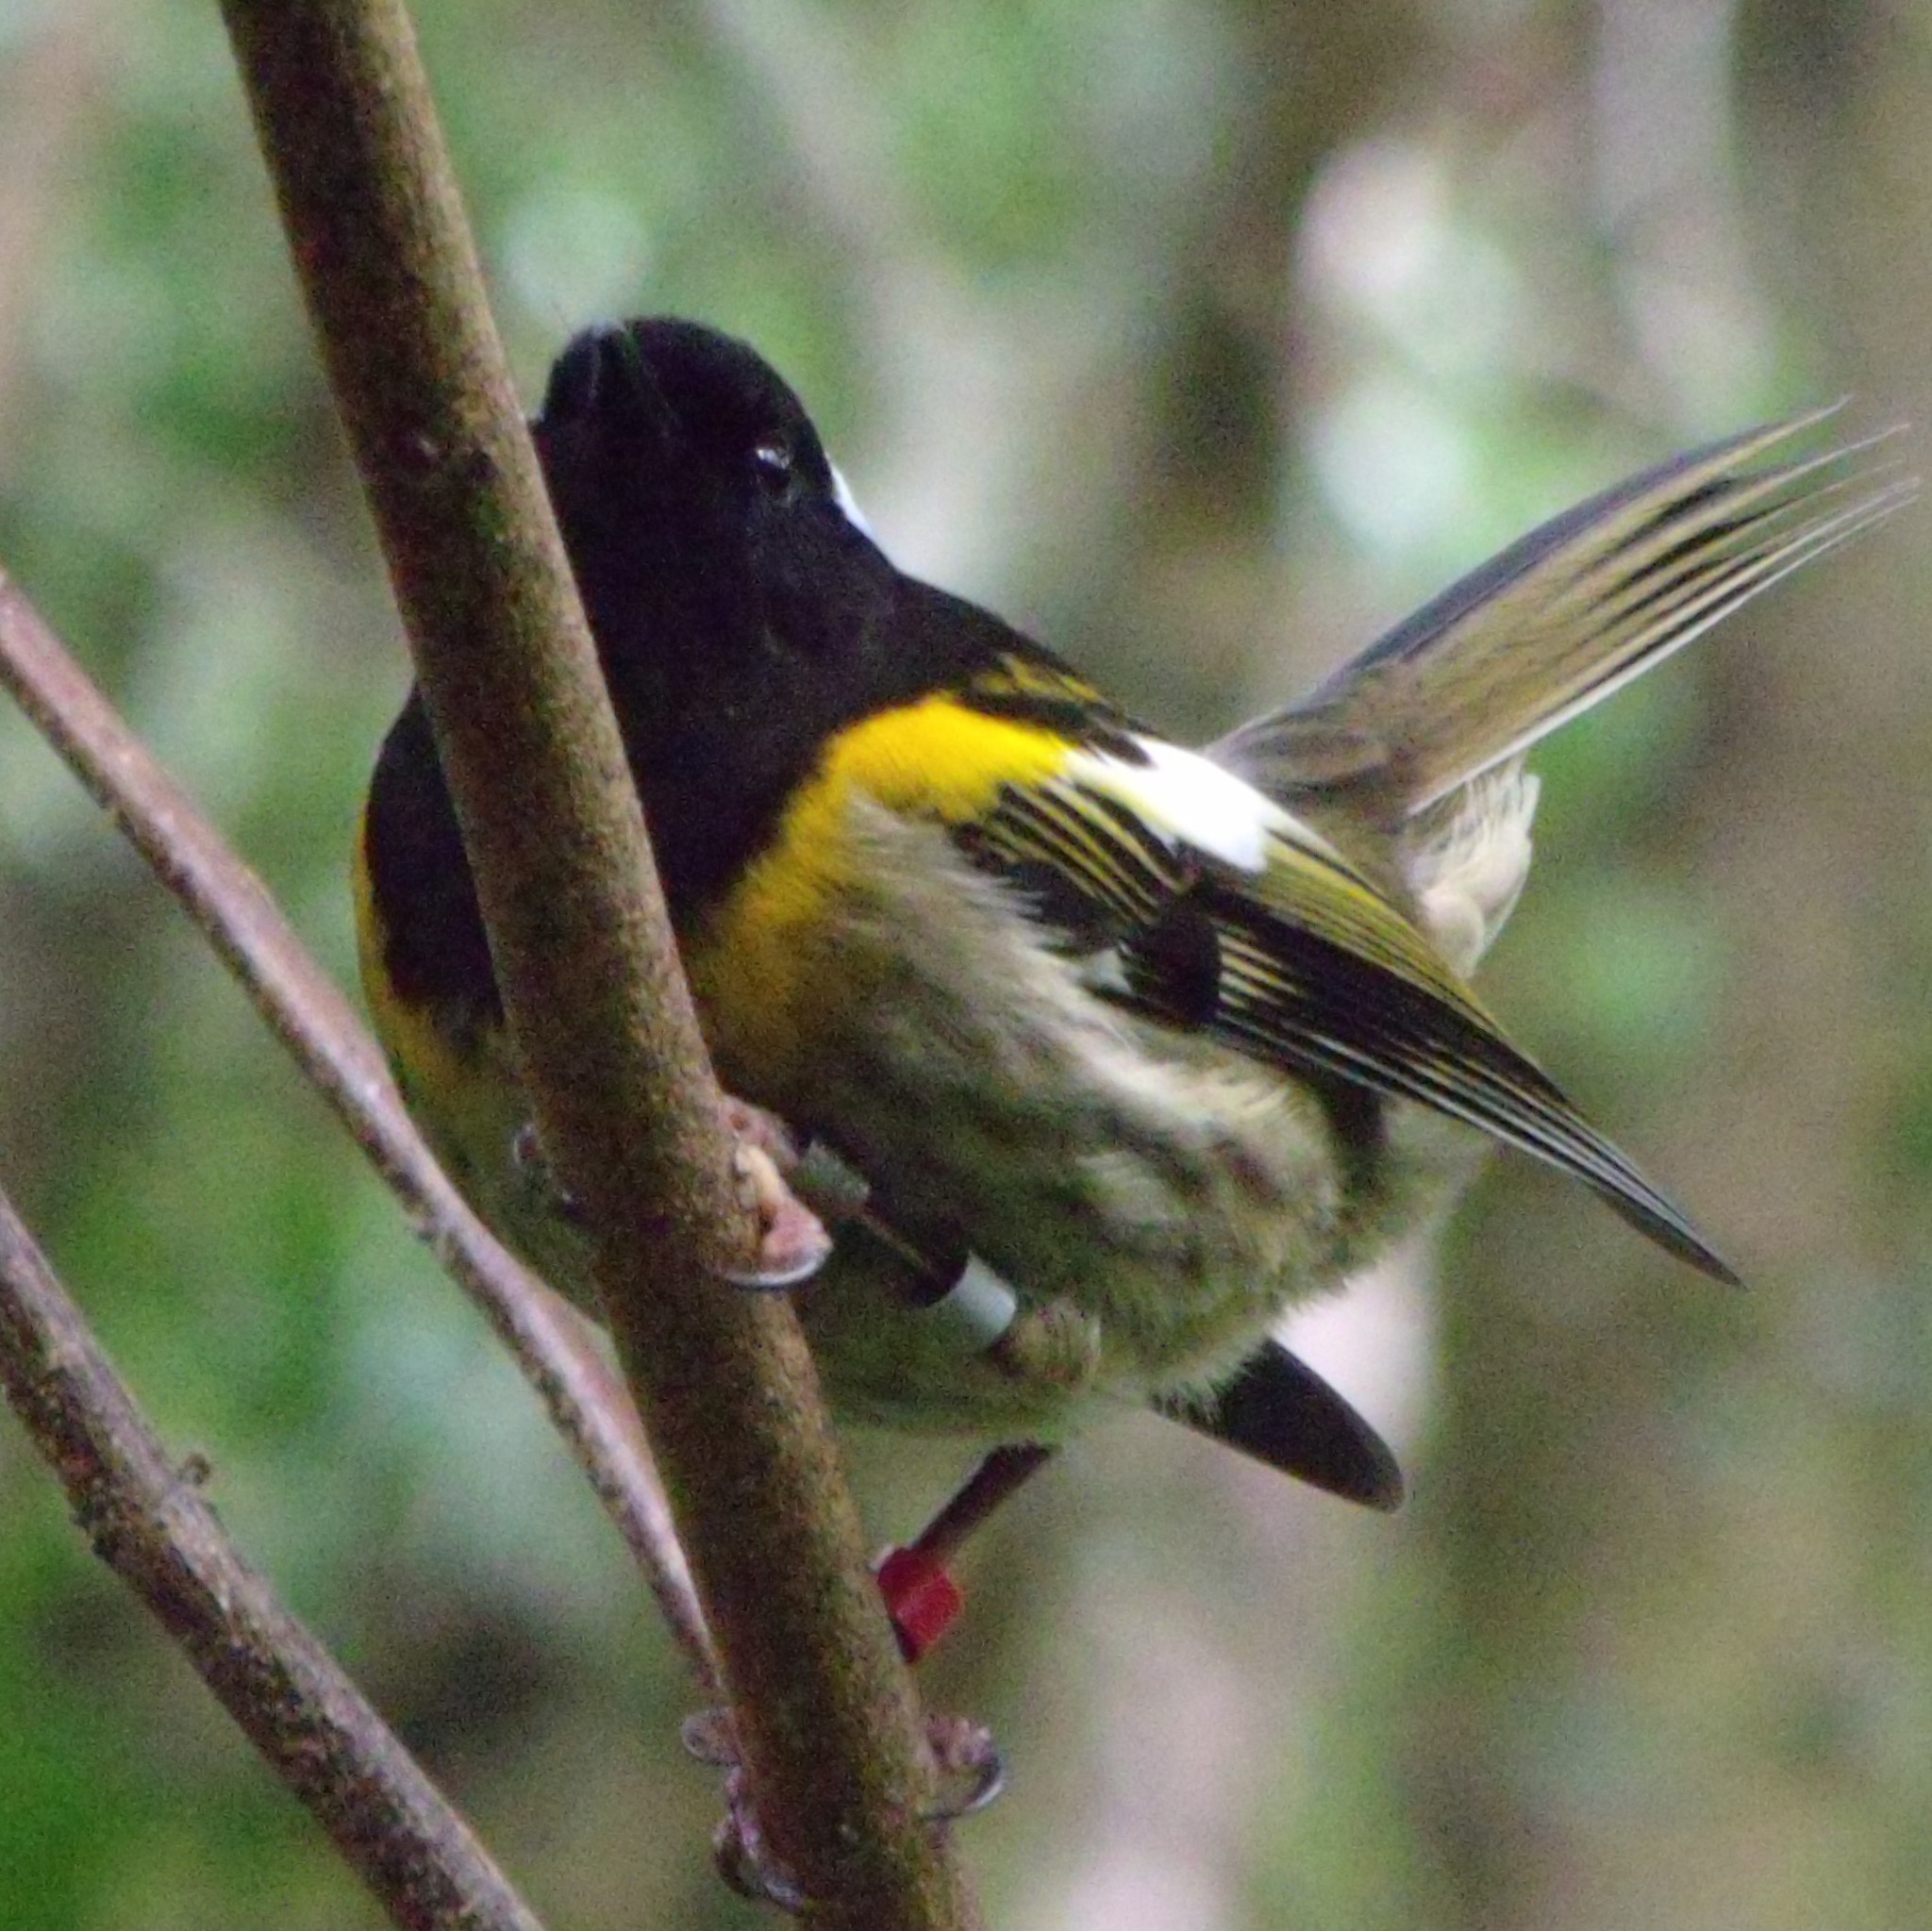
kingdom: Animalia
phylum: Chordata
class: Aves
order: Passeriformes
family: Notiomystidae
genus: Notiomystis
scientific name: Notiomystis cincta
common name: Stitchbird
